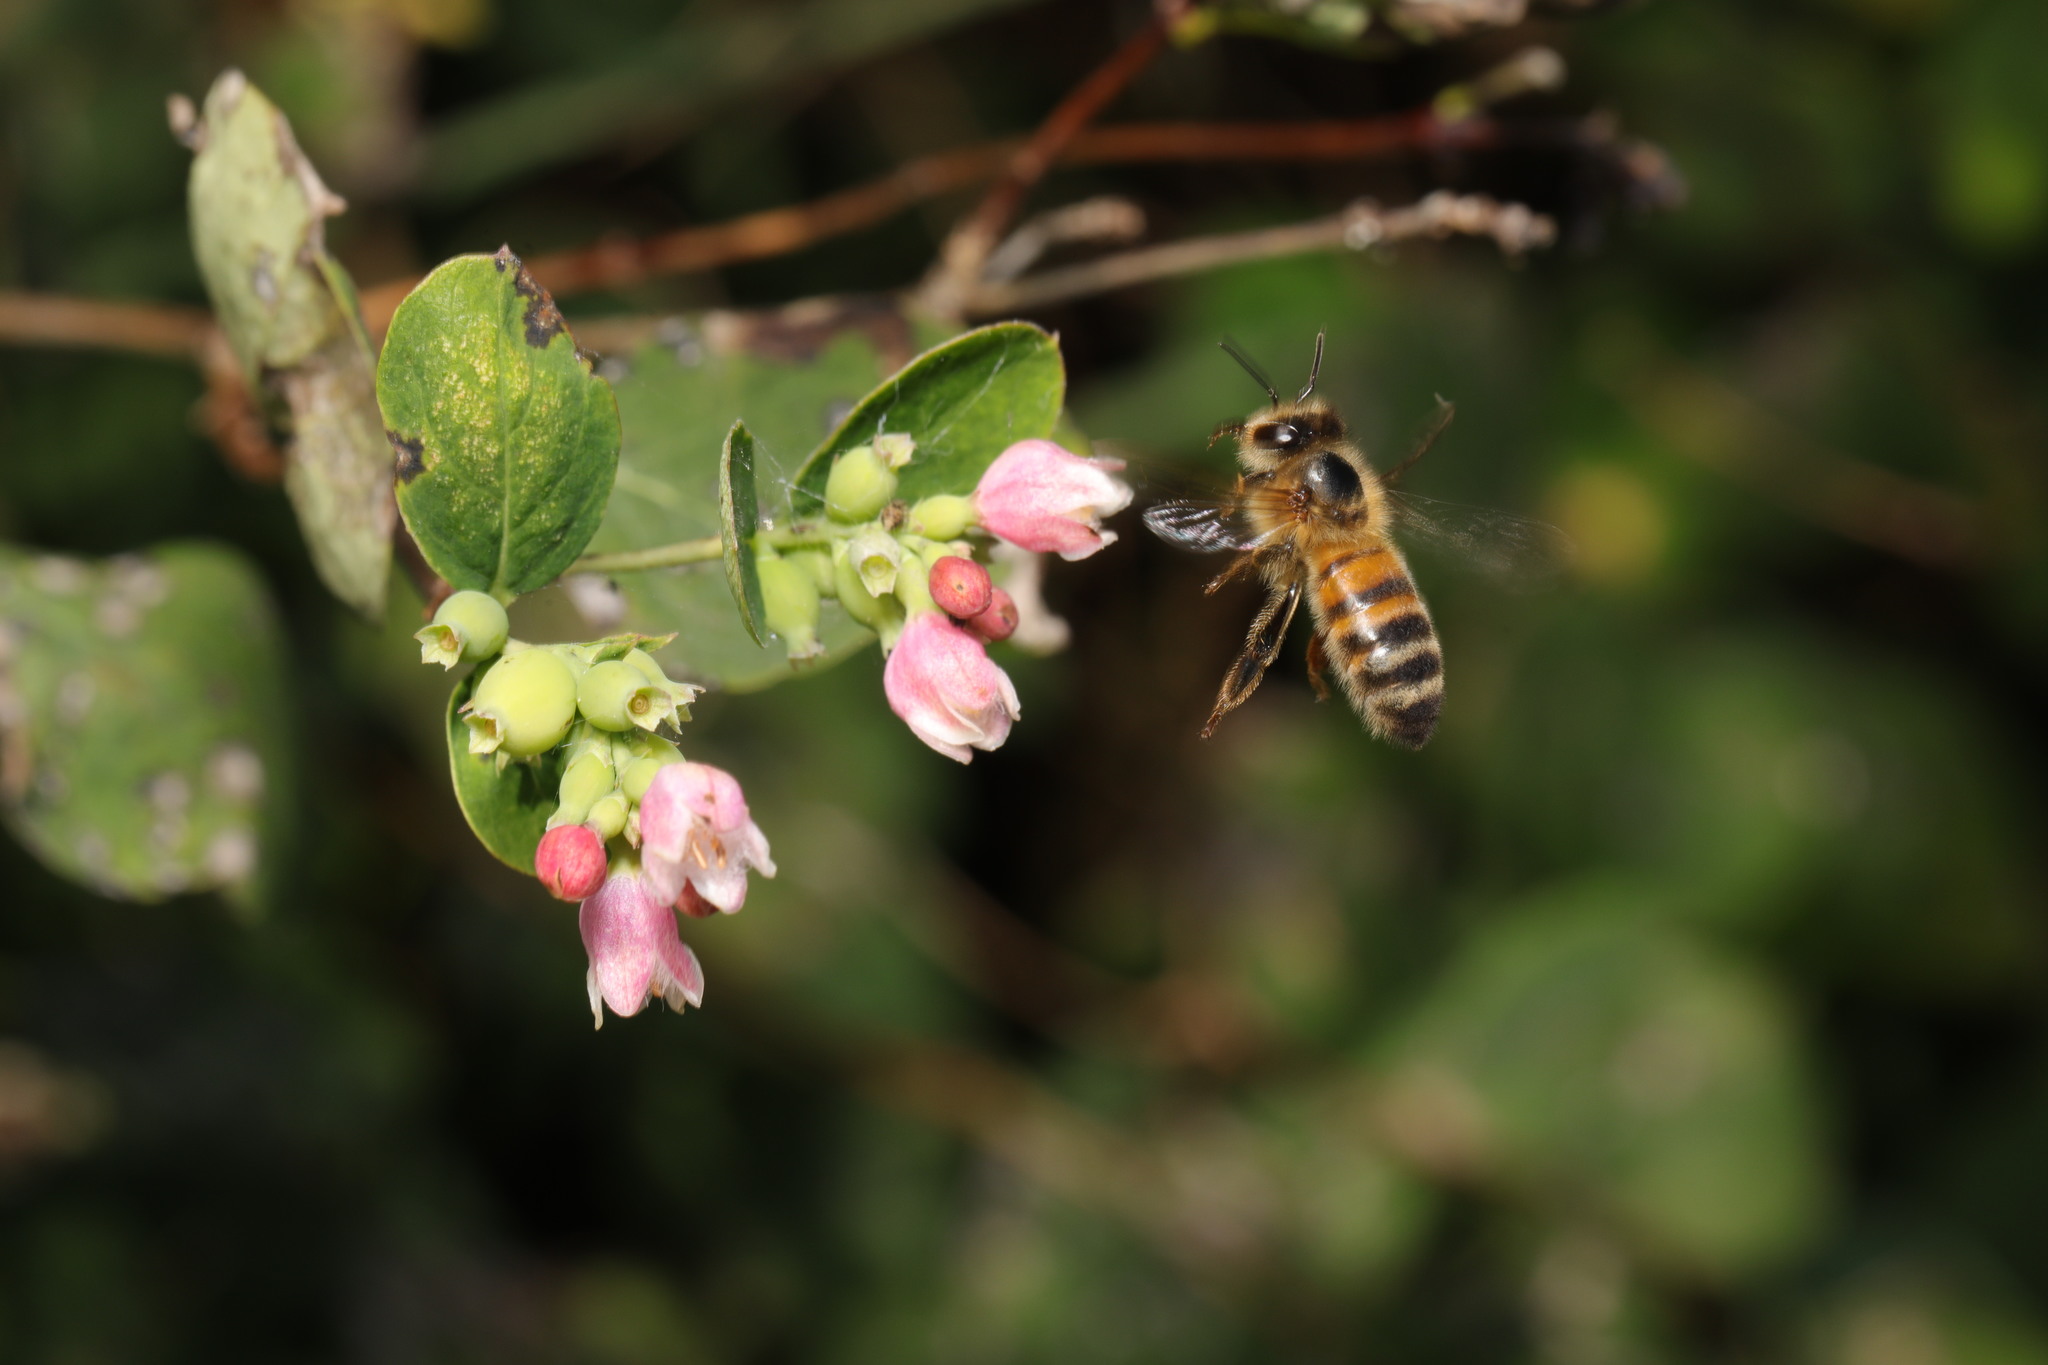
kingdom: Animalia
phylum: Arthropoda
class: Insecta
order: Hymenoptera
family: Apidae
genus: Apis
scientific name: Apis mellifera
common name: Honey bee
